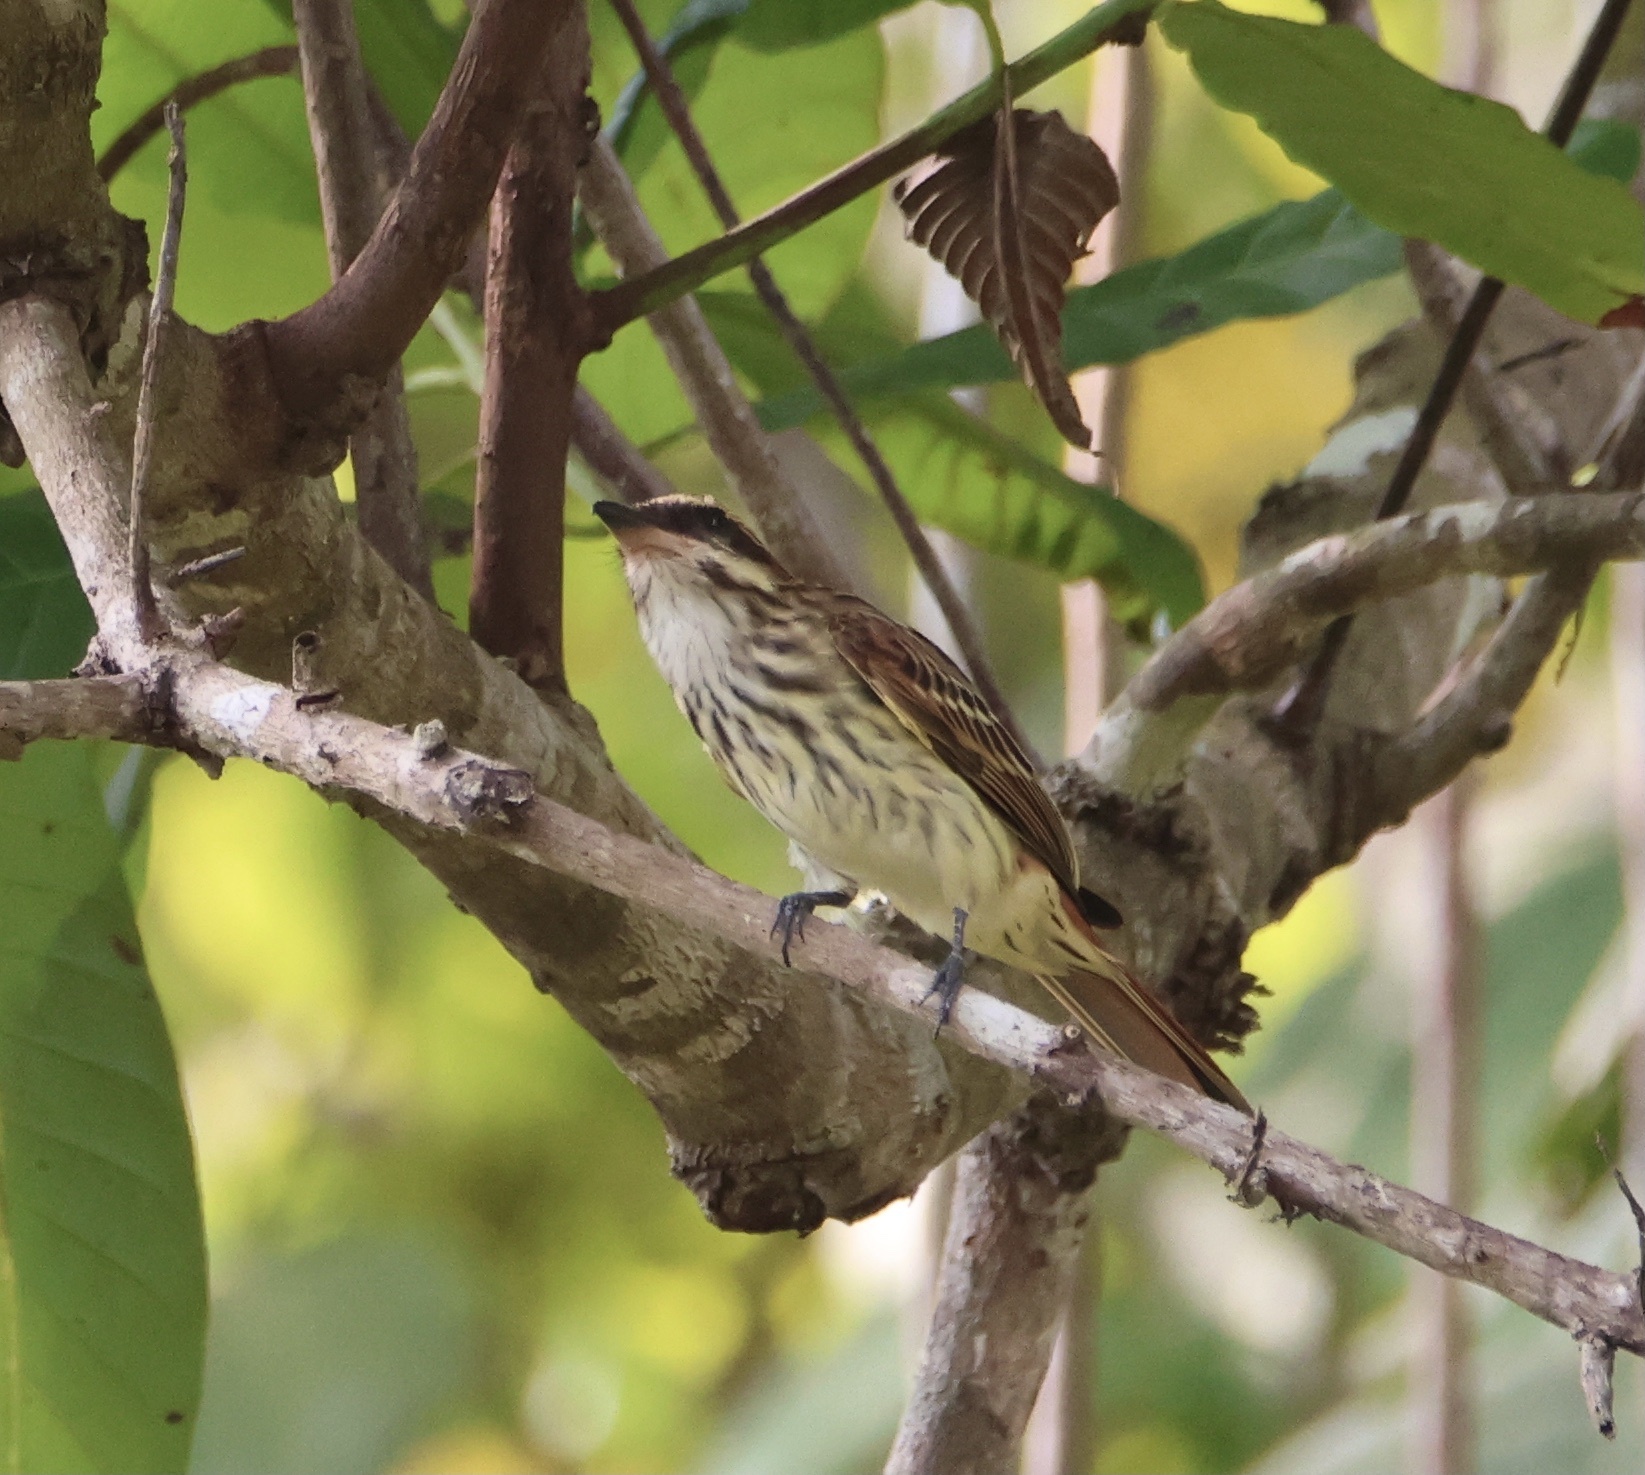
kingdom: Animalia
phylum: Chordata
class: Aves
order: Passeriformes
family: Tyrannidae
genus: Myiodynastes
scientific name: Myiodynastes maculatus
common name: Streaked flycatcher
